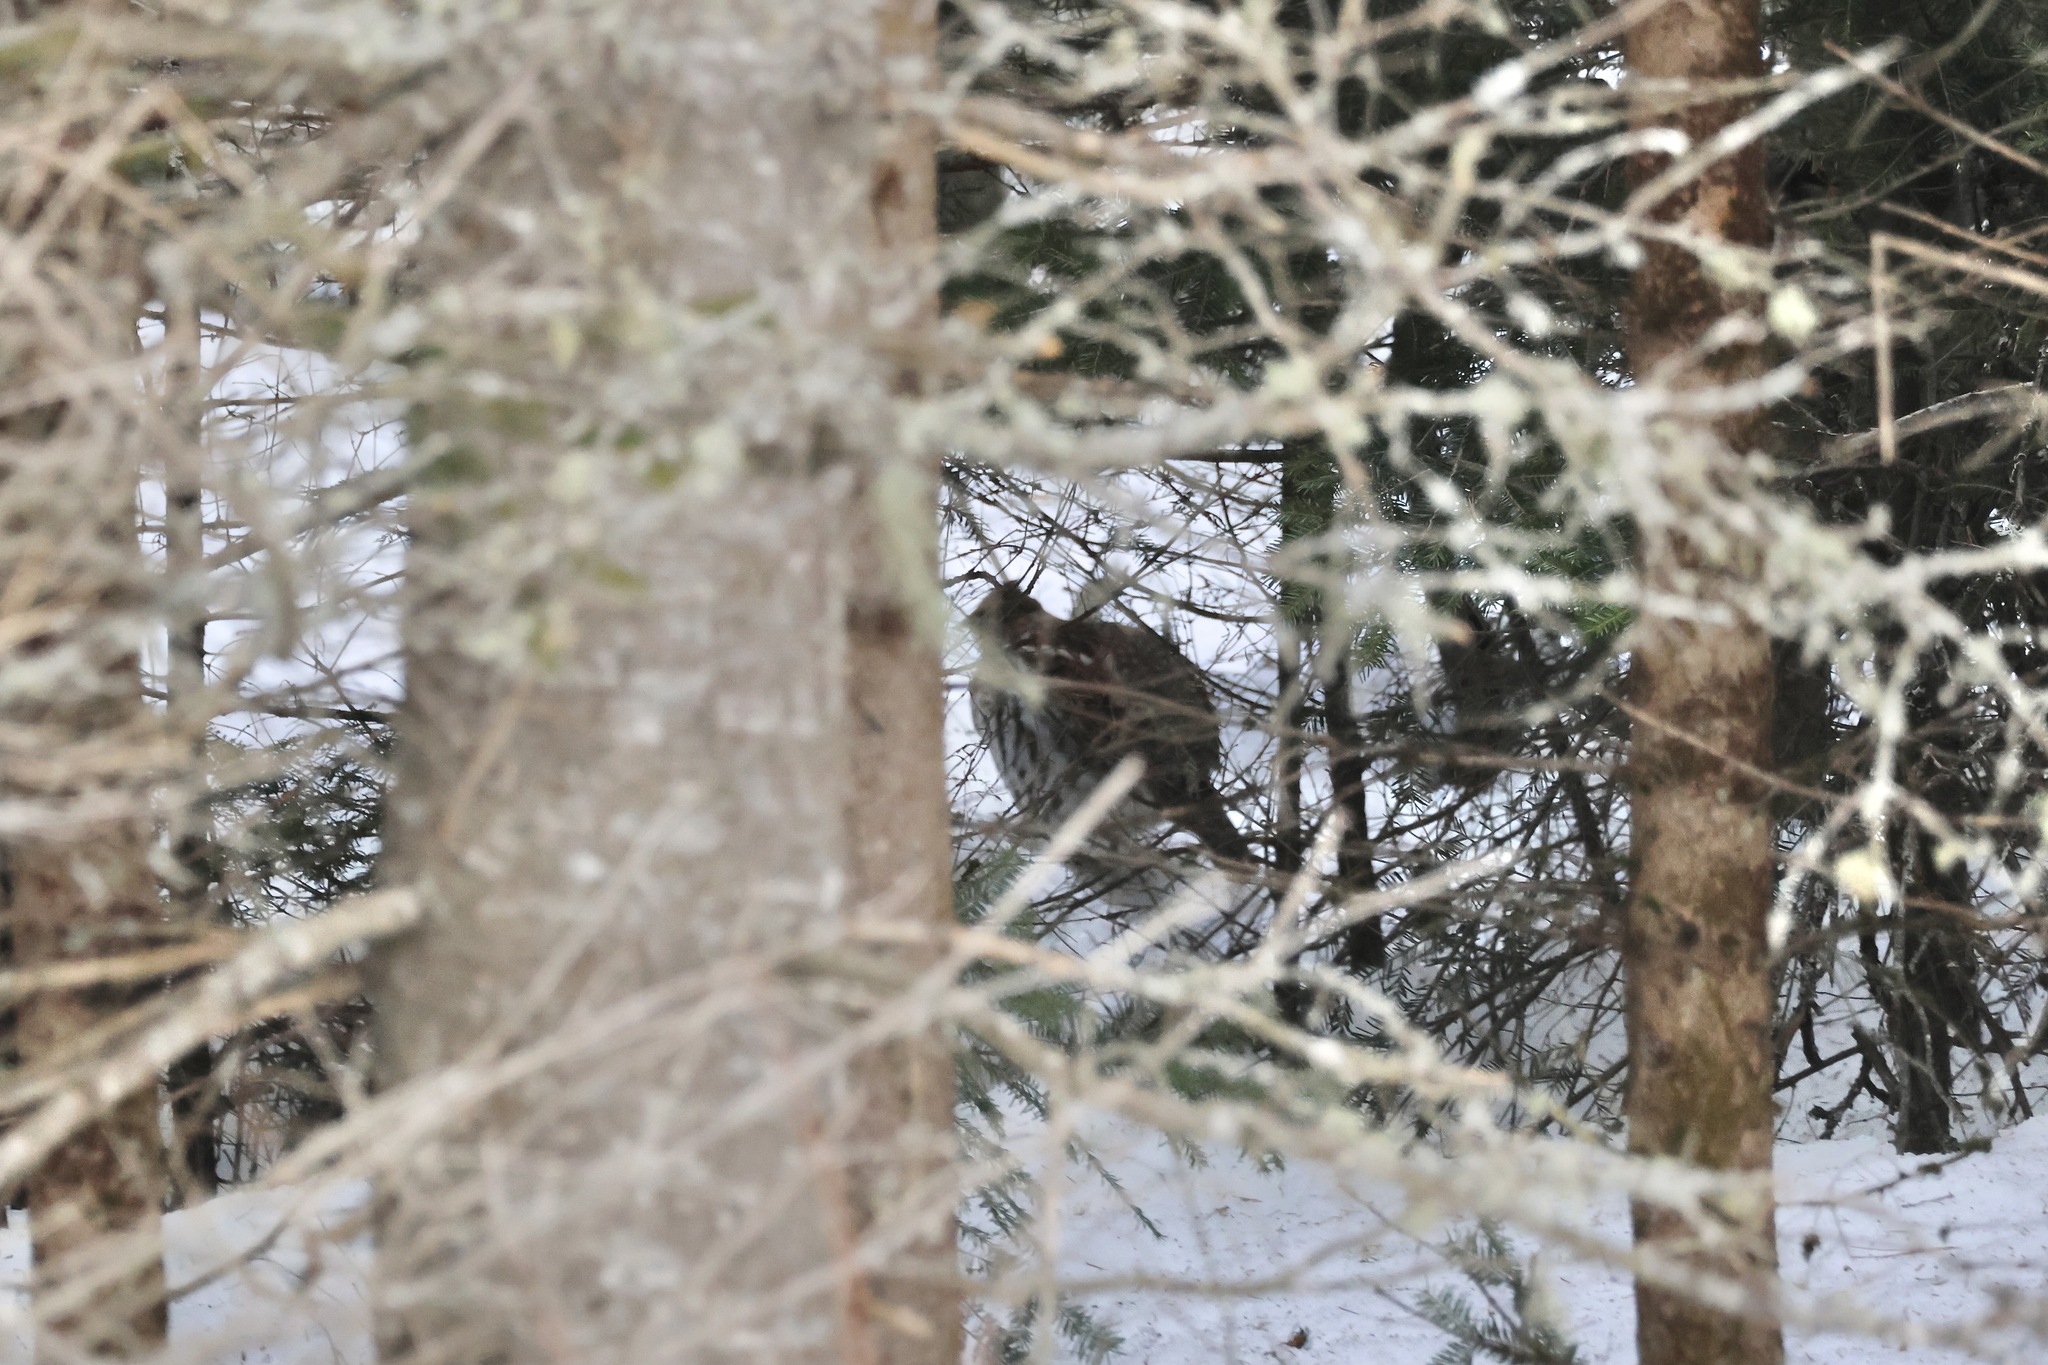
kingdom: Animalia
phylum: Chordata
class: Aves
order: Galliformes
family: Phasianidae
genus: Bonasa
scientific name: Bonasa umbellus
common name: Ruffed grouse
